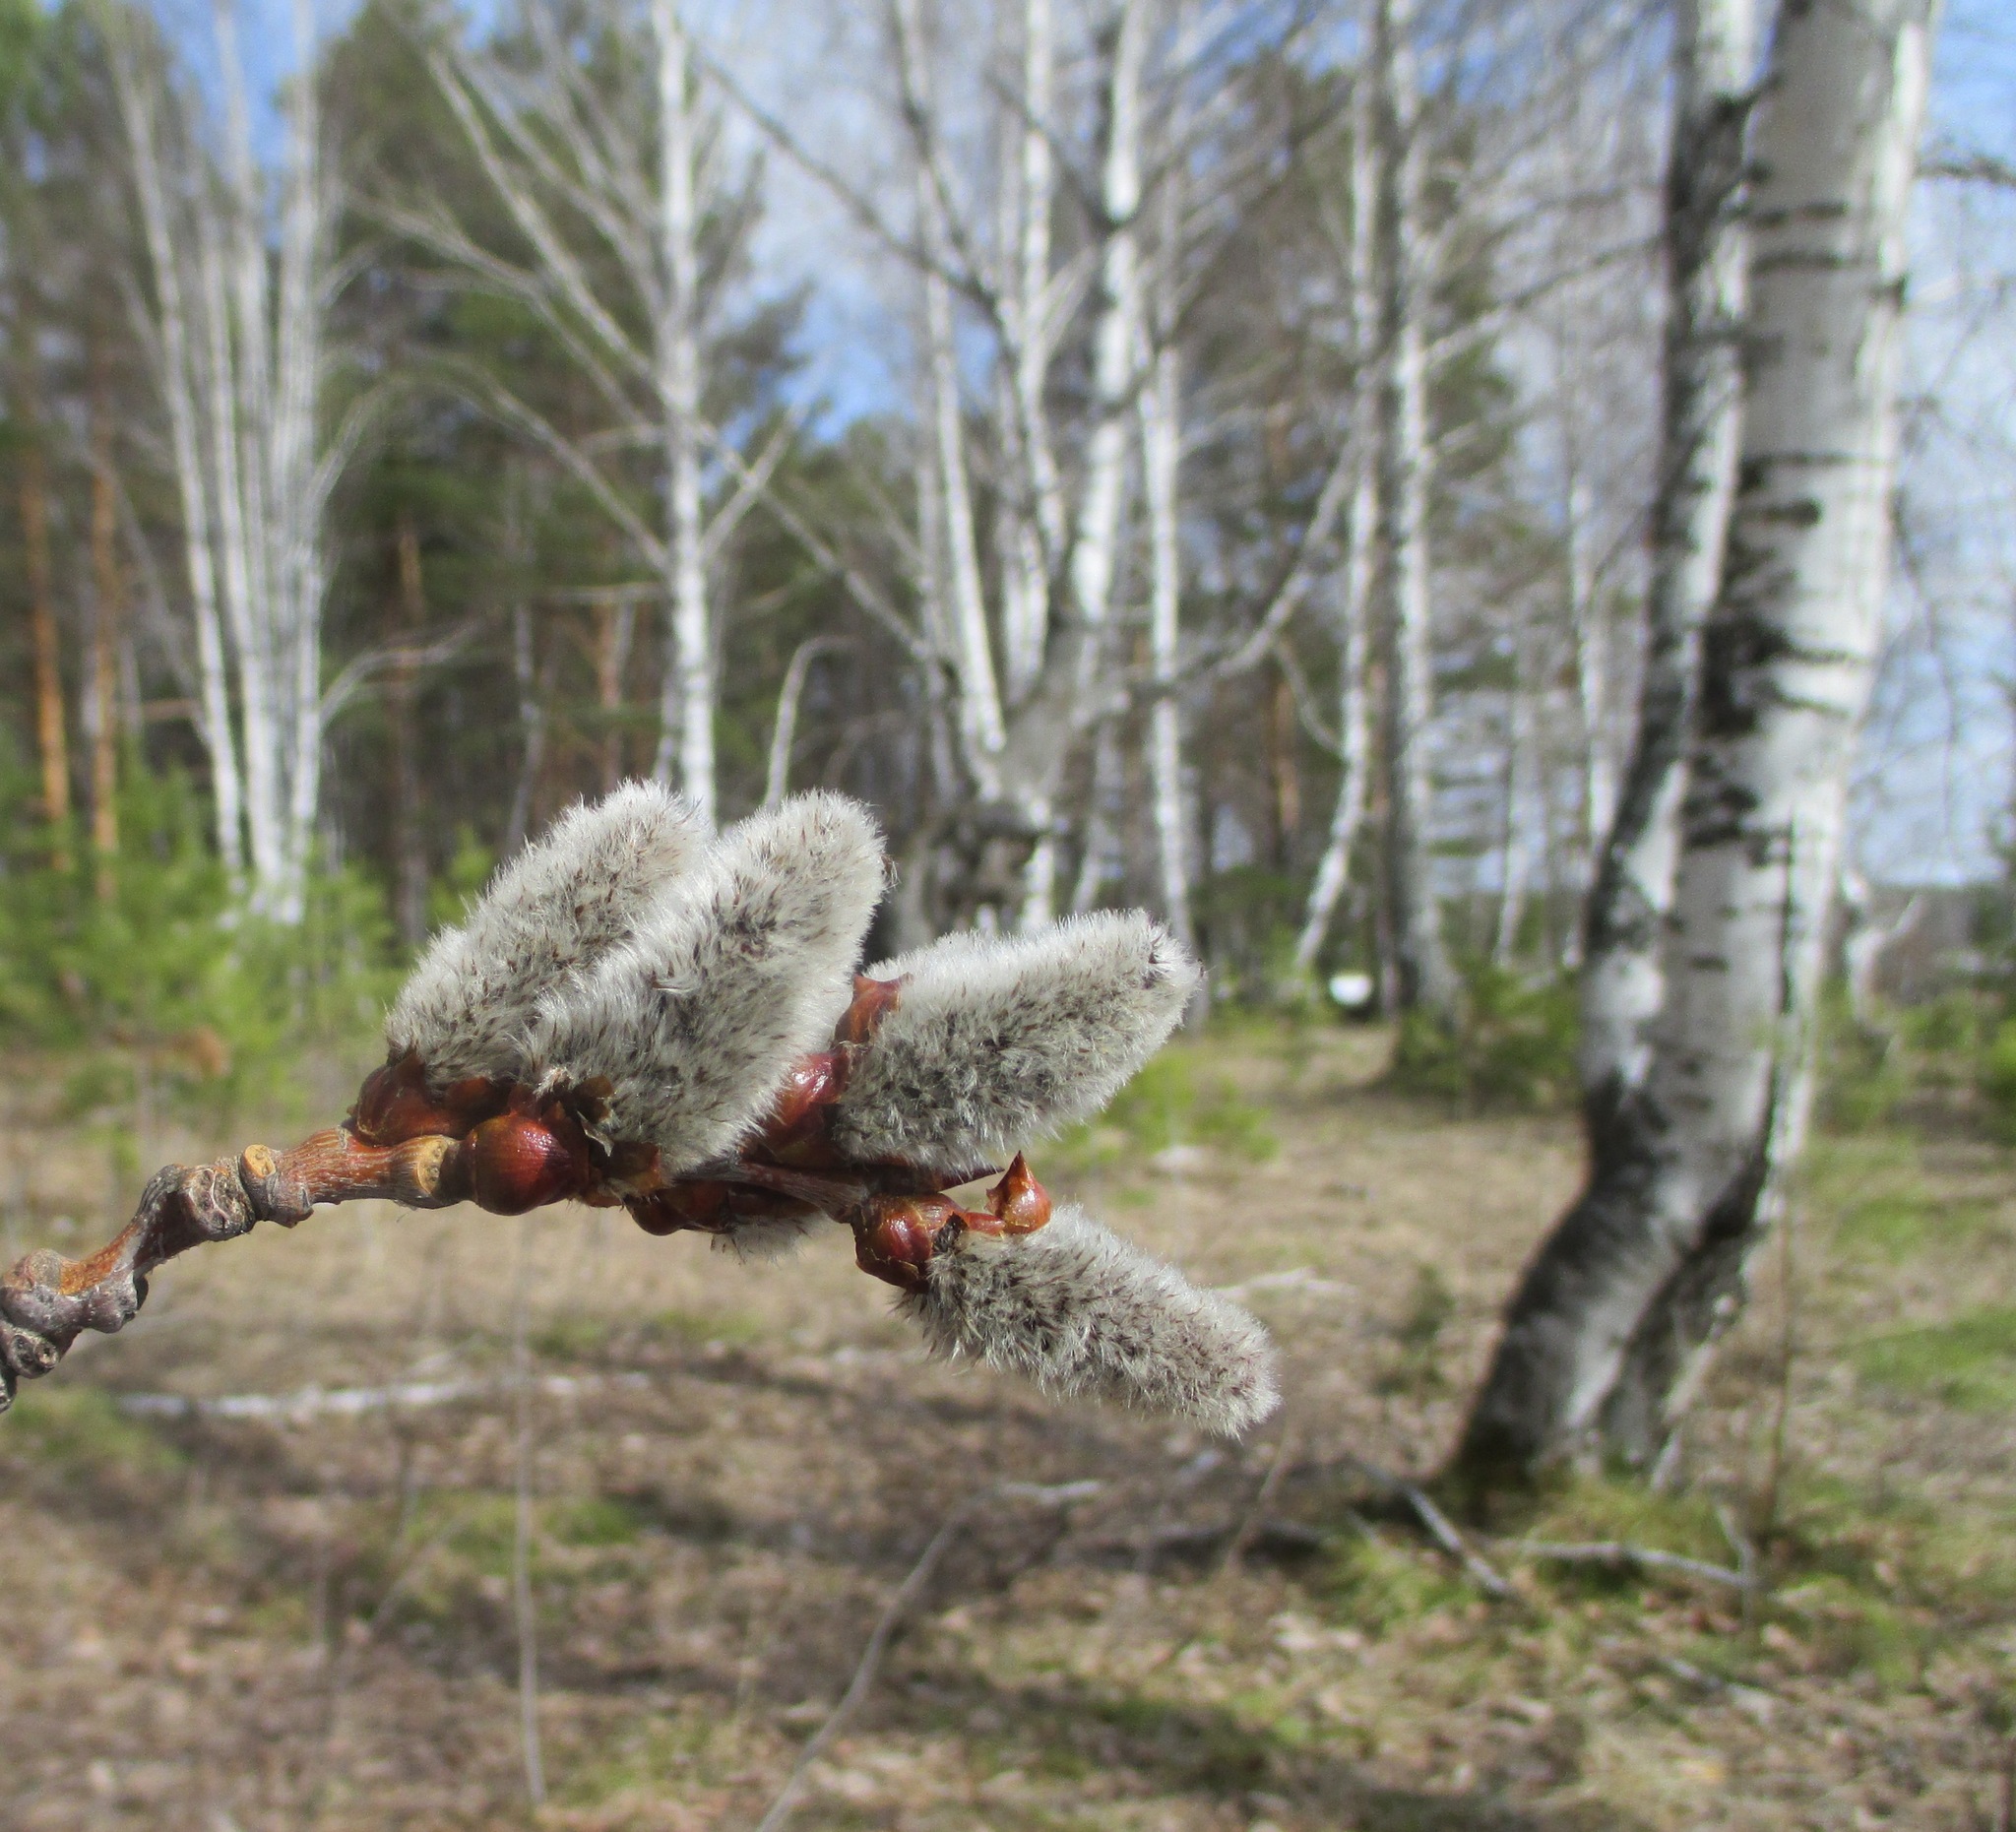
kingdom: Plantae
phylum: Tracheophyta
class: Magnoliopsida
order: Malpighiales
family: Salicaceae
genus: Populus
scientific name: Populus tremula
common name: European aspen
